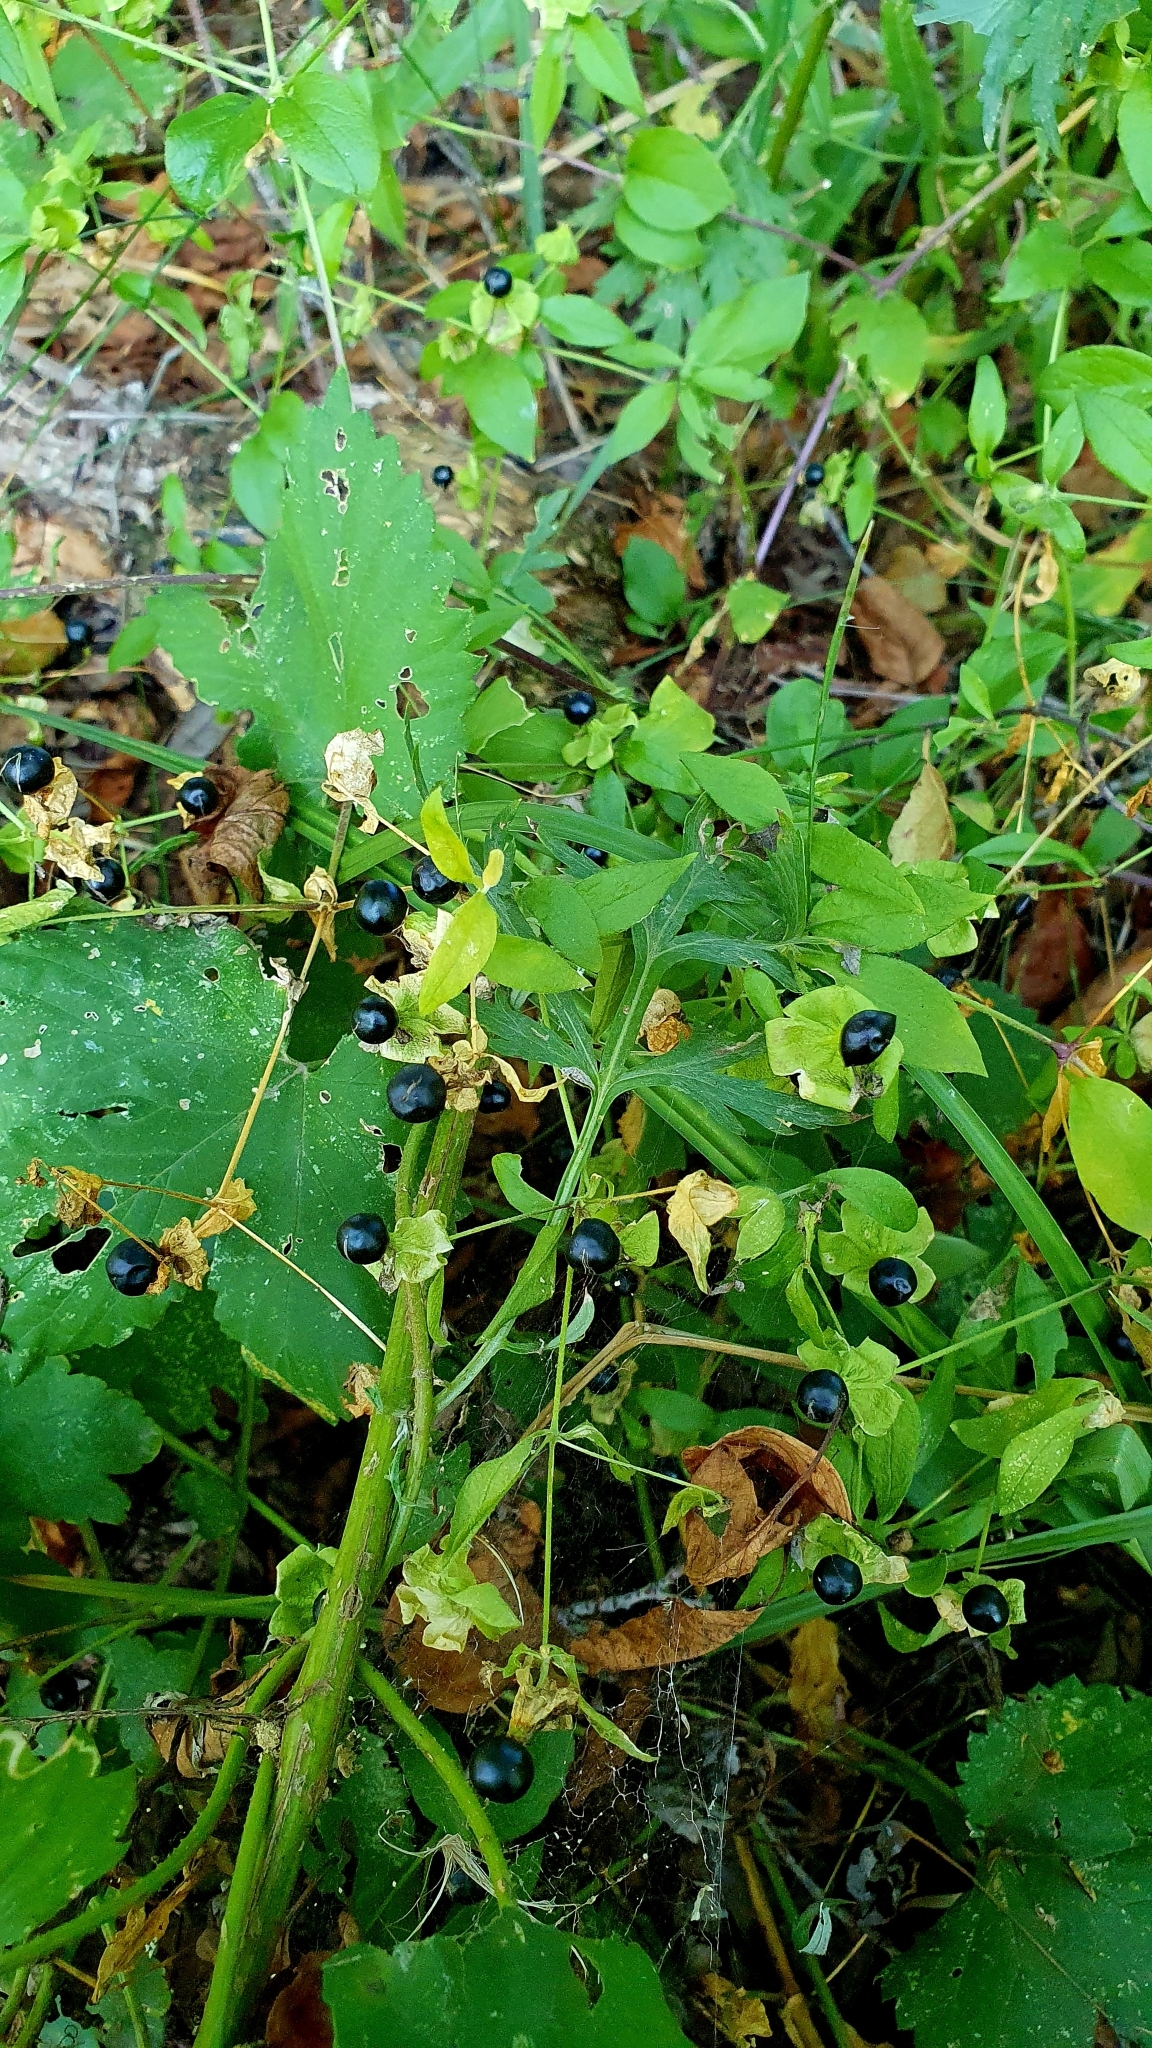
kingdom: Plantae
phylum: Tracheophyta
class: Magnoliopsida
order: Caryophyllales
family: Caryophyllaceae
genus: Silene
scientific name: Silene baccifera
